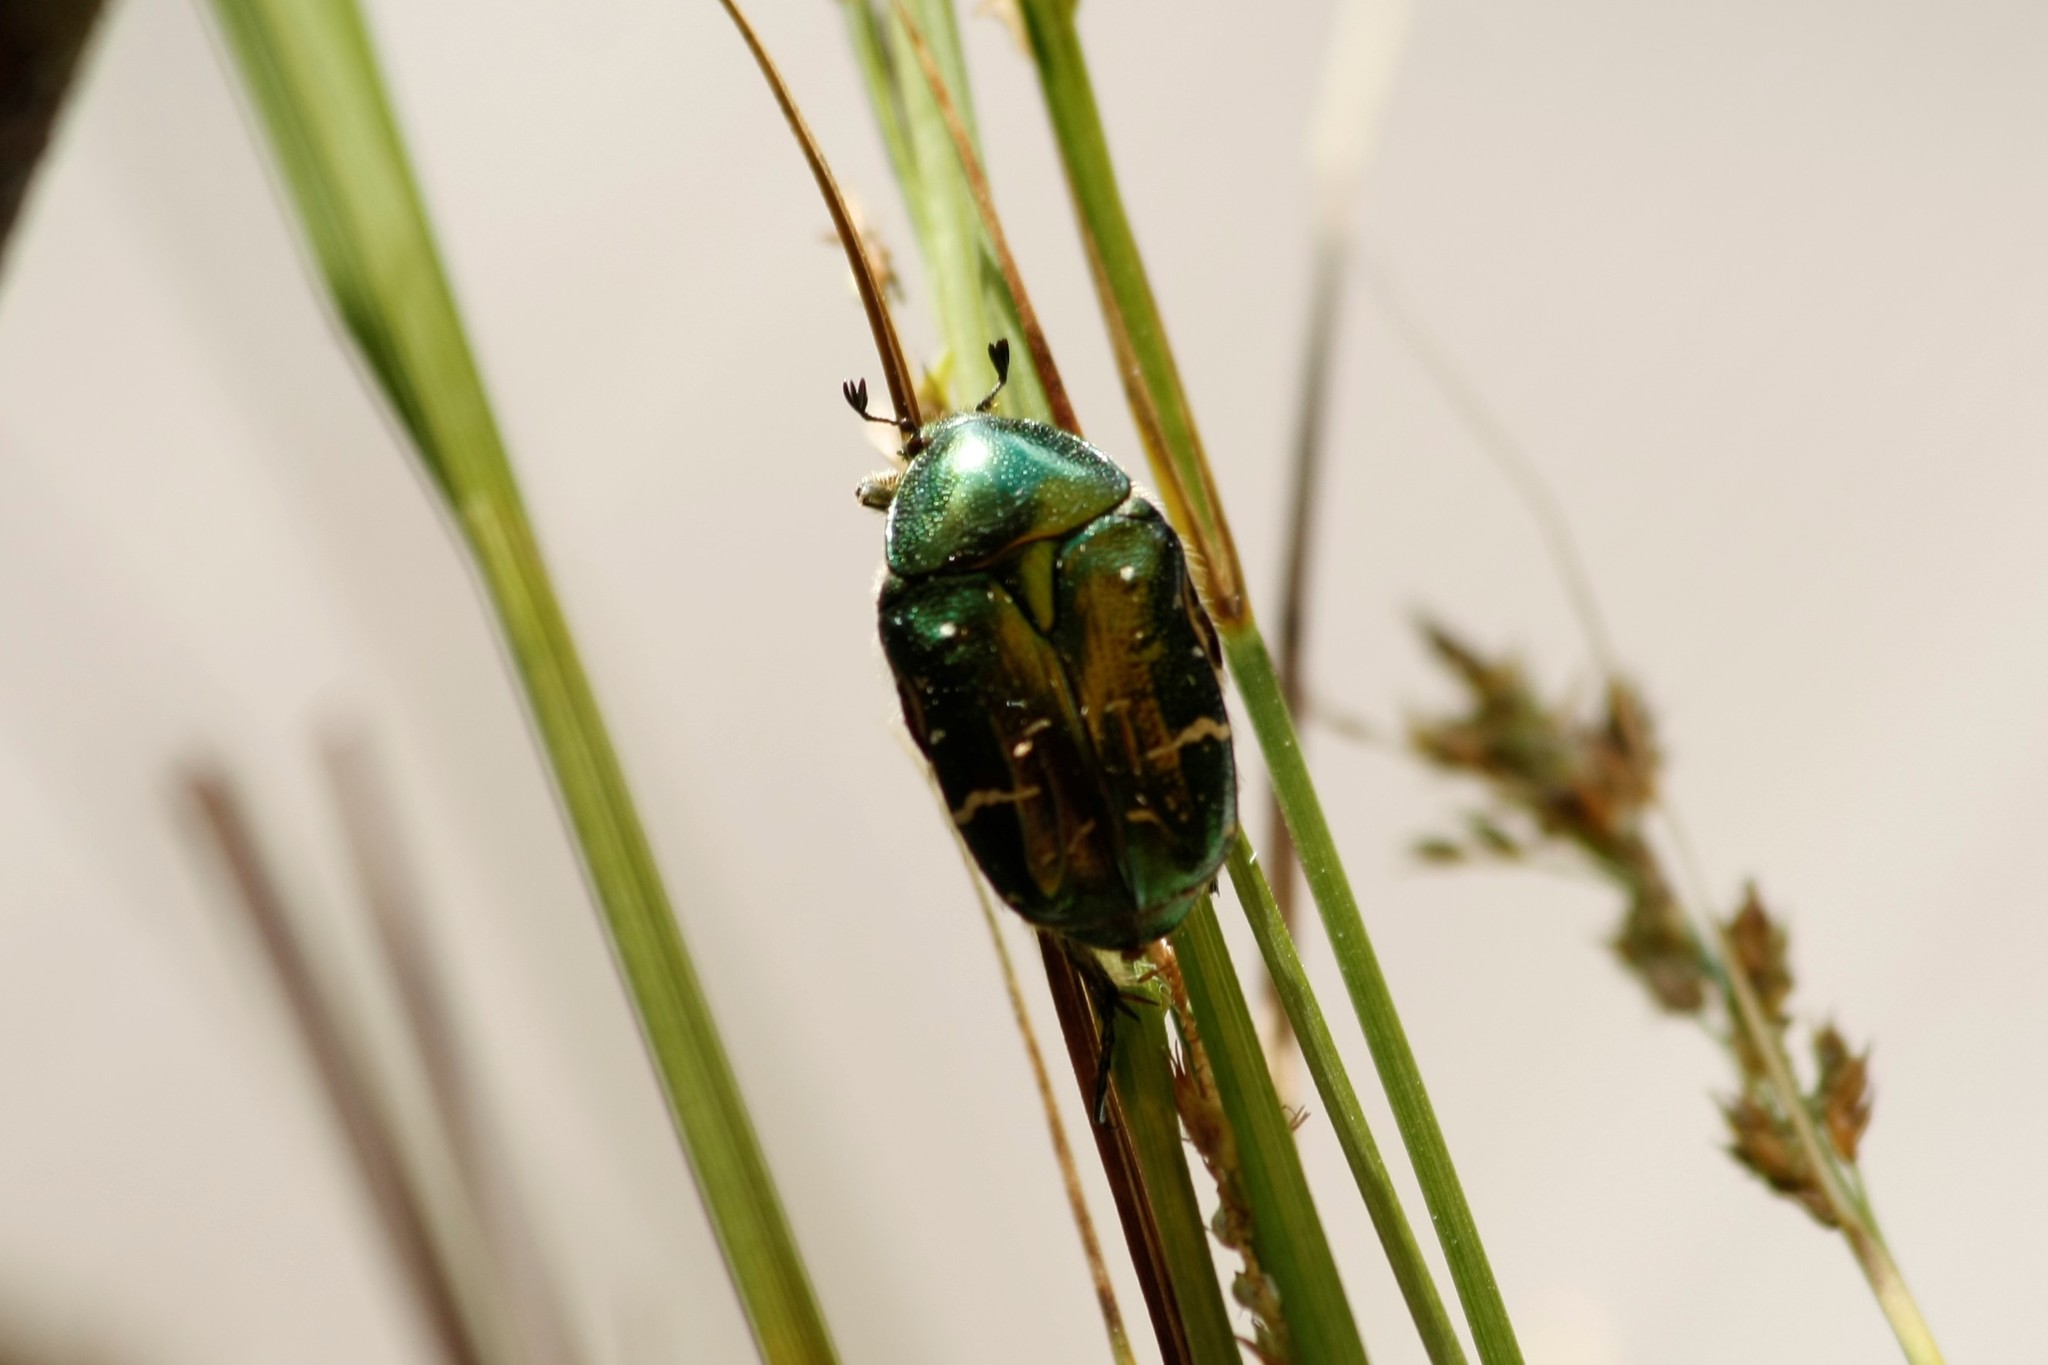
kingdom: Animalia
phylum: Arthropoda
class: Insecta
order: Coleoptera
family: Scarabaeidae
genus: Cetonia
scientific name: Cetonia aurata
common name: Rose chafer
